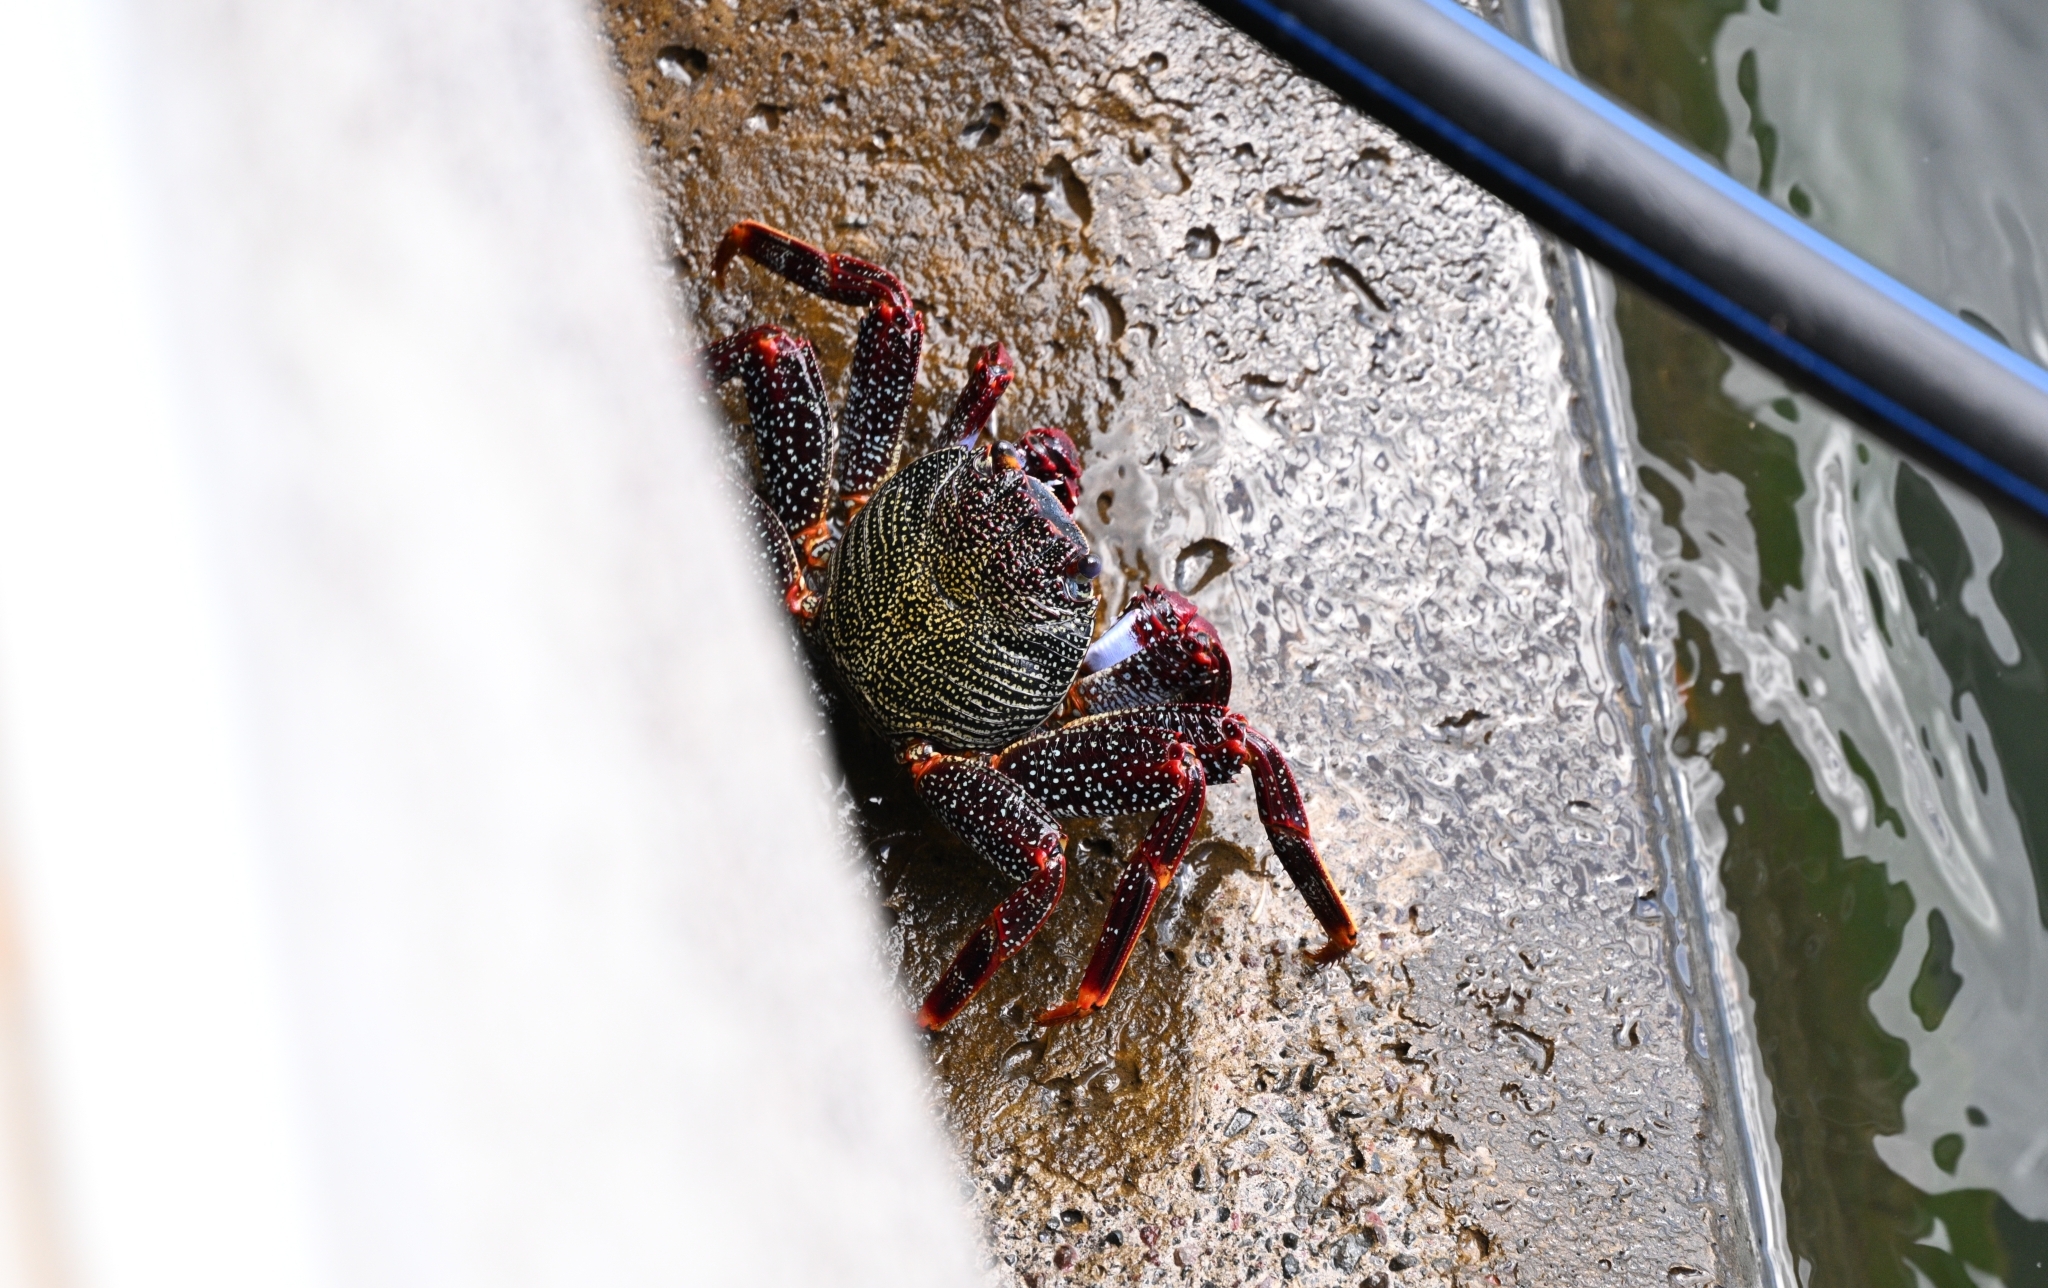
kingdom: Animalia
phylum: Arthropoda
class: Malacostraca
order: Decapoda
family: Grapsidae
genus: Grapsus
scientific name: Grapsus adscensionis
